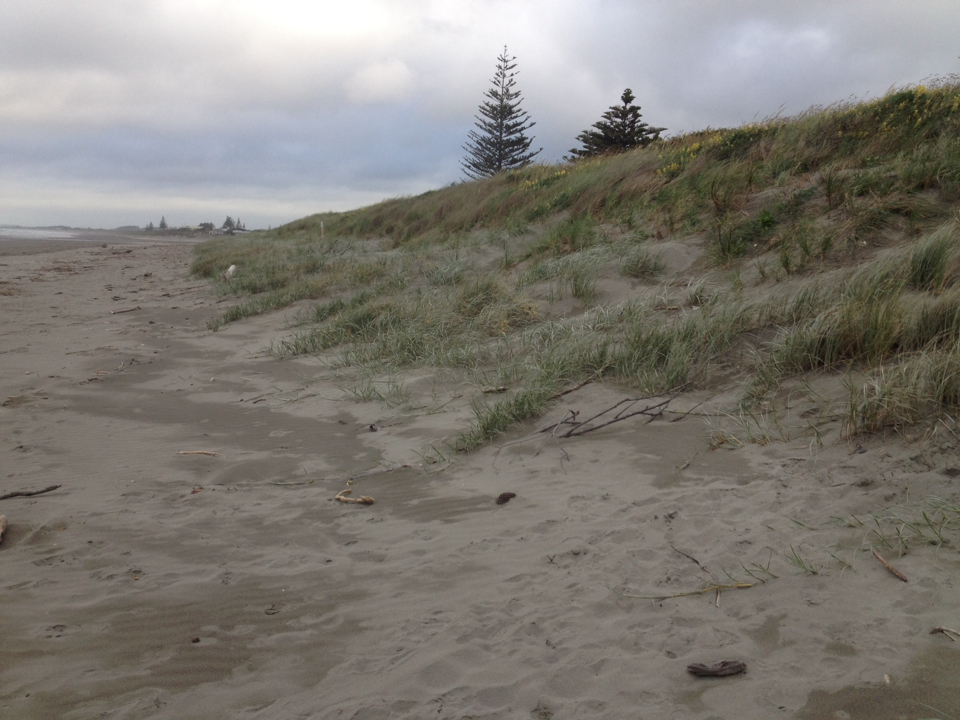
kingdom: Plantae
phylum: Tracheophyta
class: Liliopsida
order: Poales
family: Poaceae
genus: Spinifex
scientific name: Spinifex sericeus
